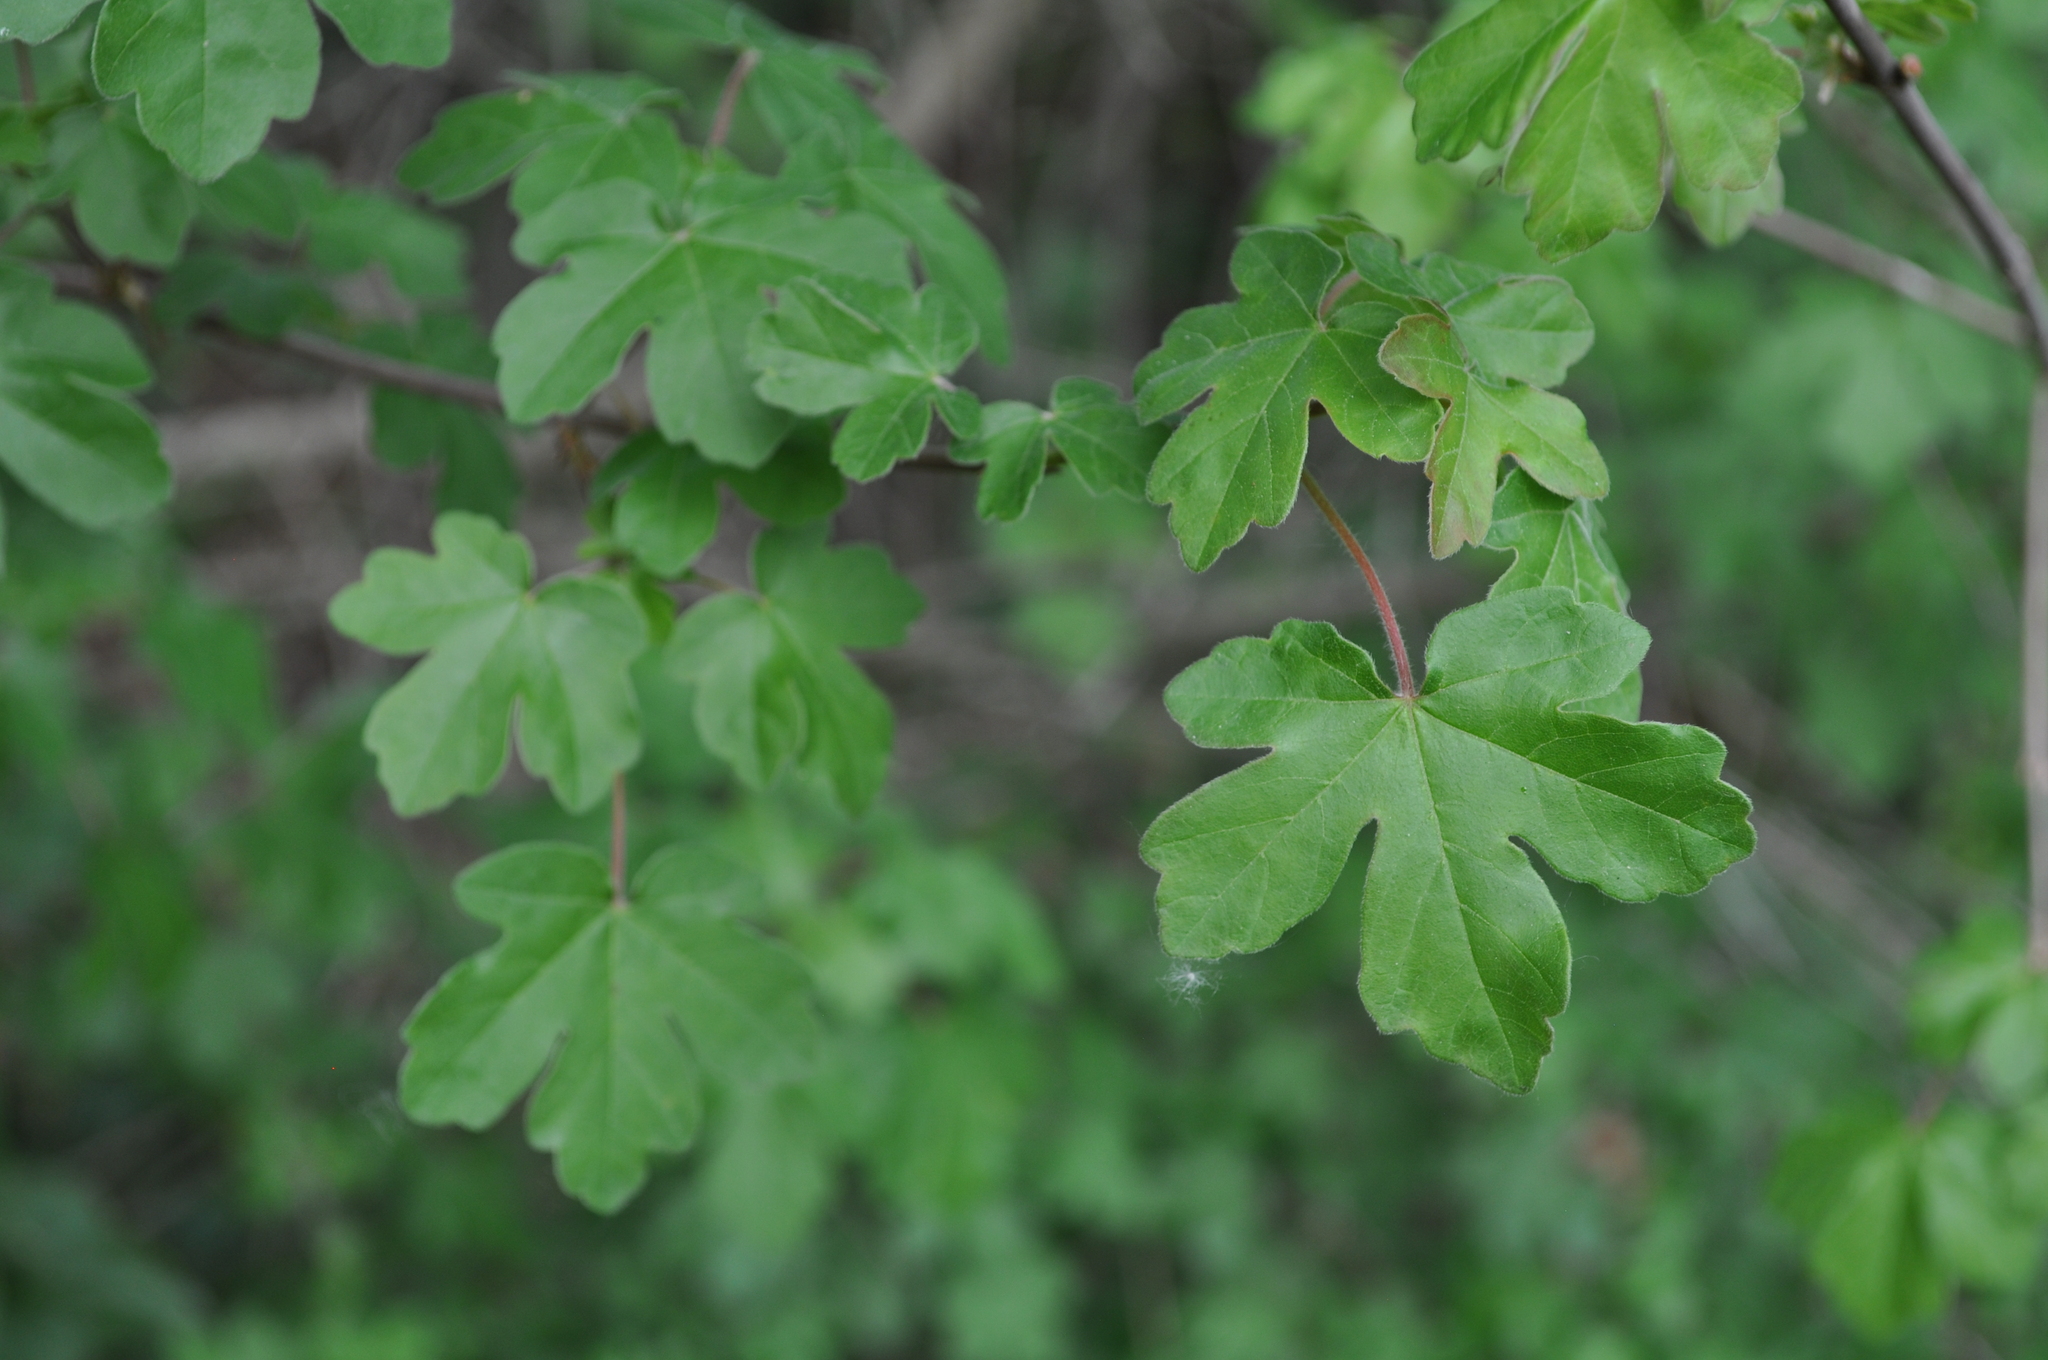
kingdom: Plantae
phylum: Tracheophyta
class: Magnoliopsida
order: Sapindales
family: Sapindaceae
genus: Acer
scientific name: Acer campestre
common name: Field maple
